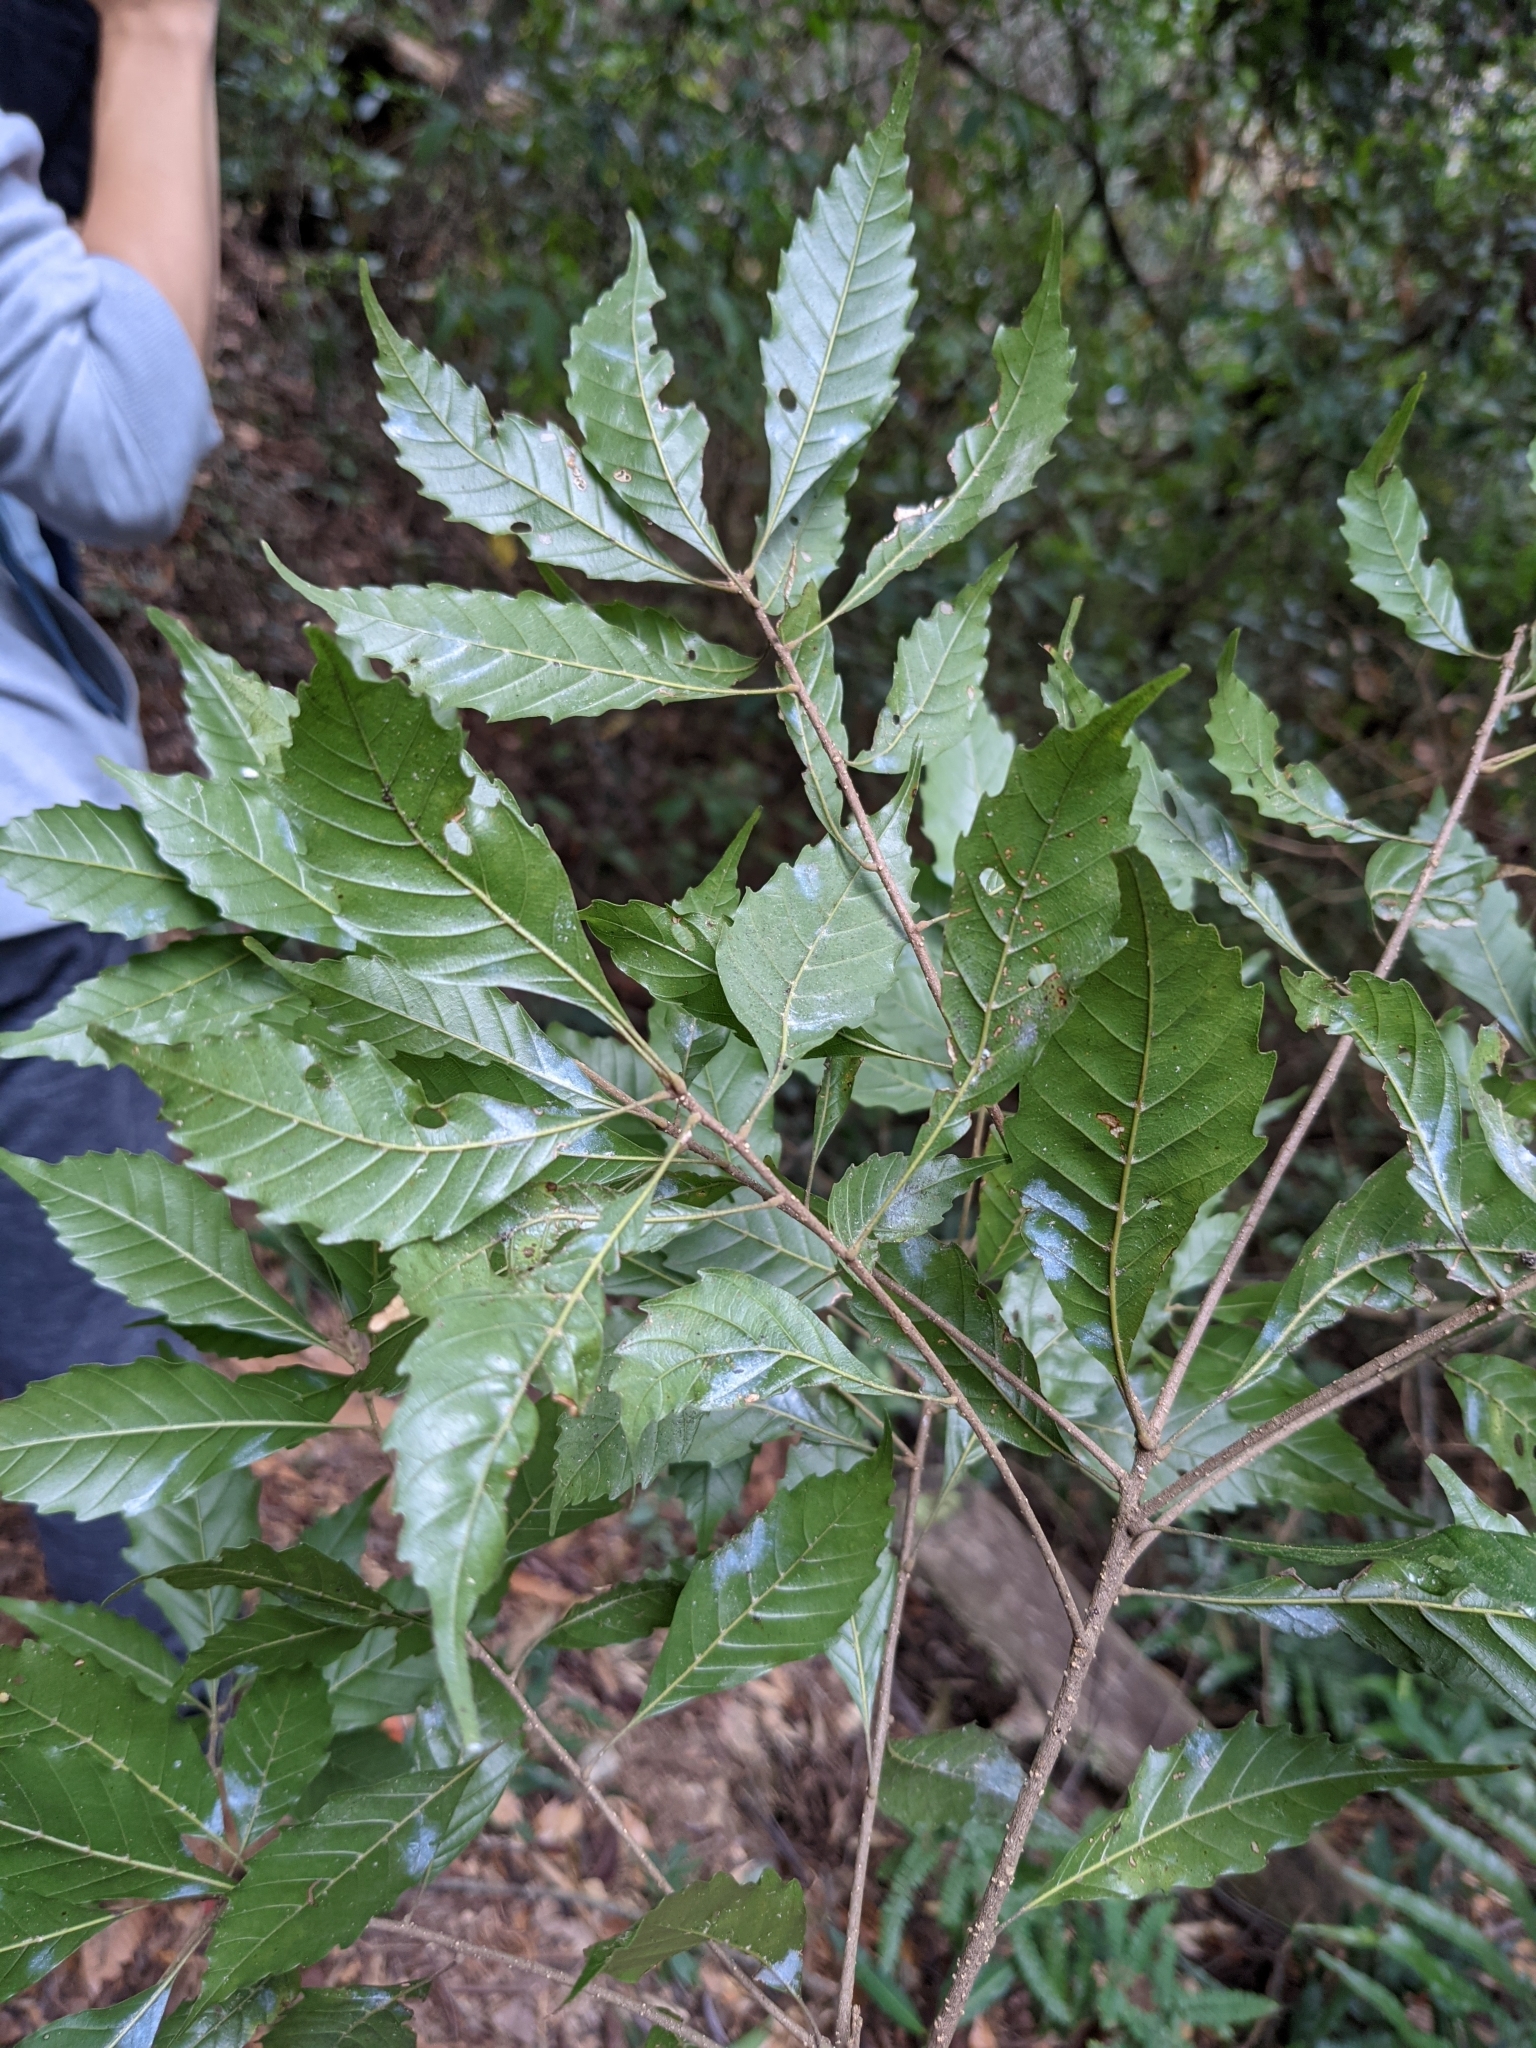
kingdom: Plantae
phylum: Tracheophyta
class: Magnoliopsida
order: Fagales
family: Fagaceae
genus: Lithocarpus
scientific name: Lithocarpus konishii
